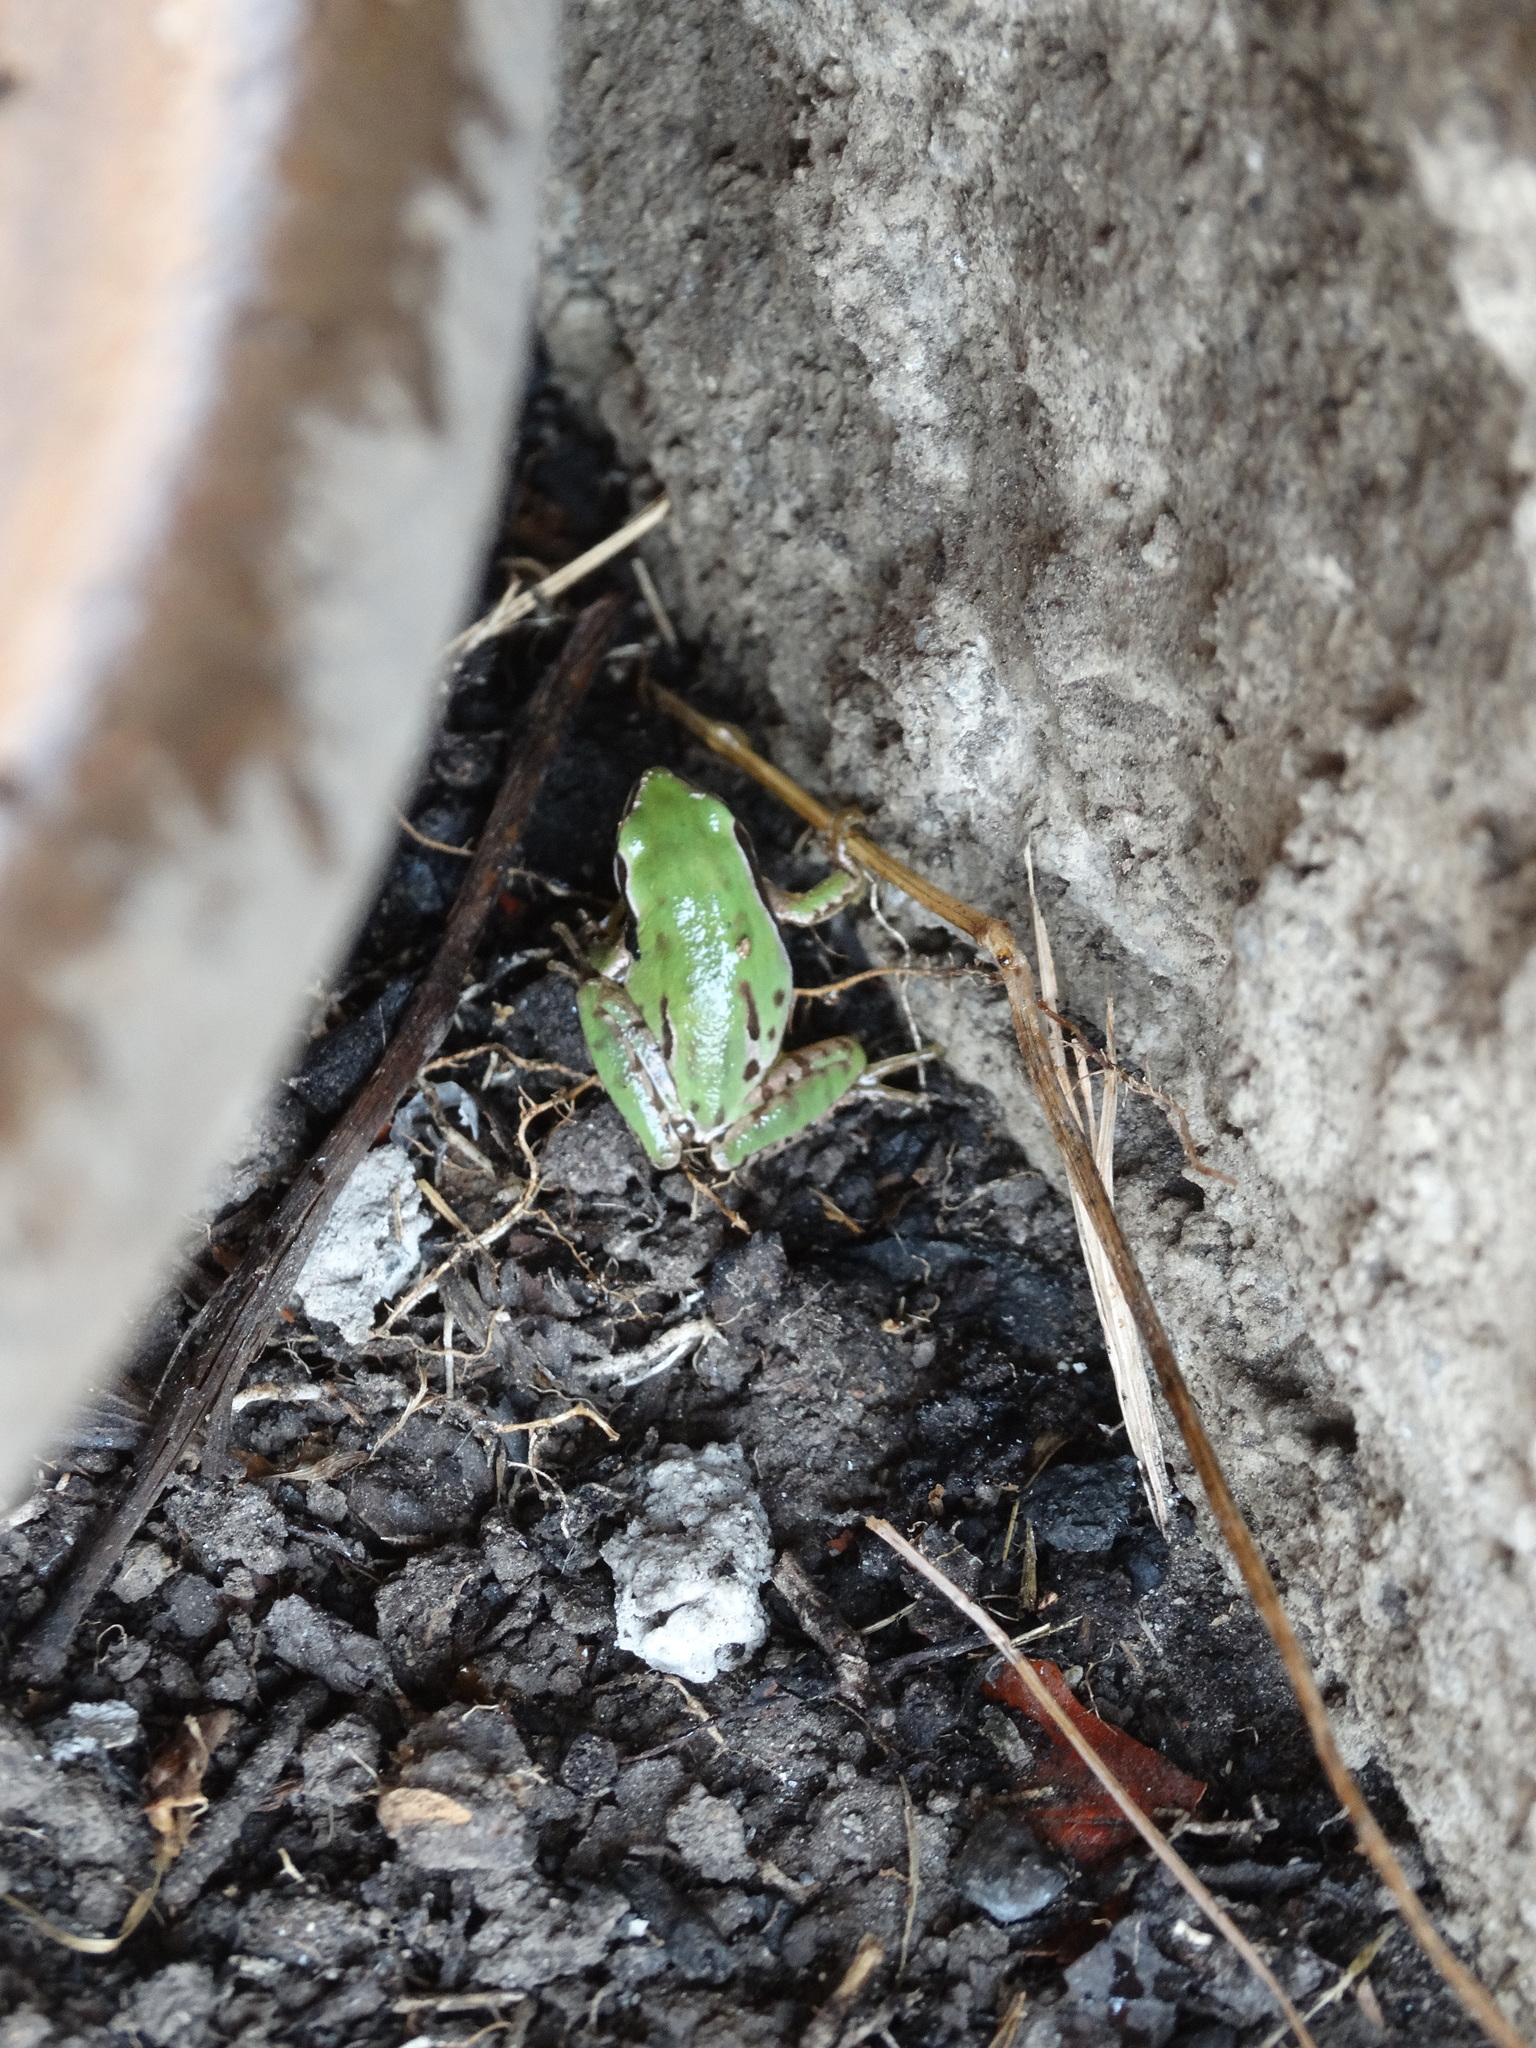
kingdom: Animalia
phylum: Chordata
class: Amphibia
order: Anura
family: Hylidae
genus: Dryophytes
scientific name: Dryophytes eximius
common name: Mountain treefrog
